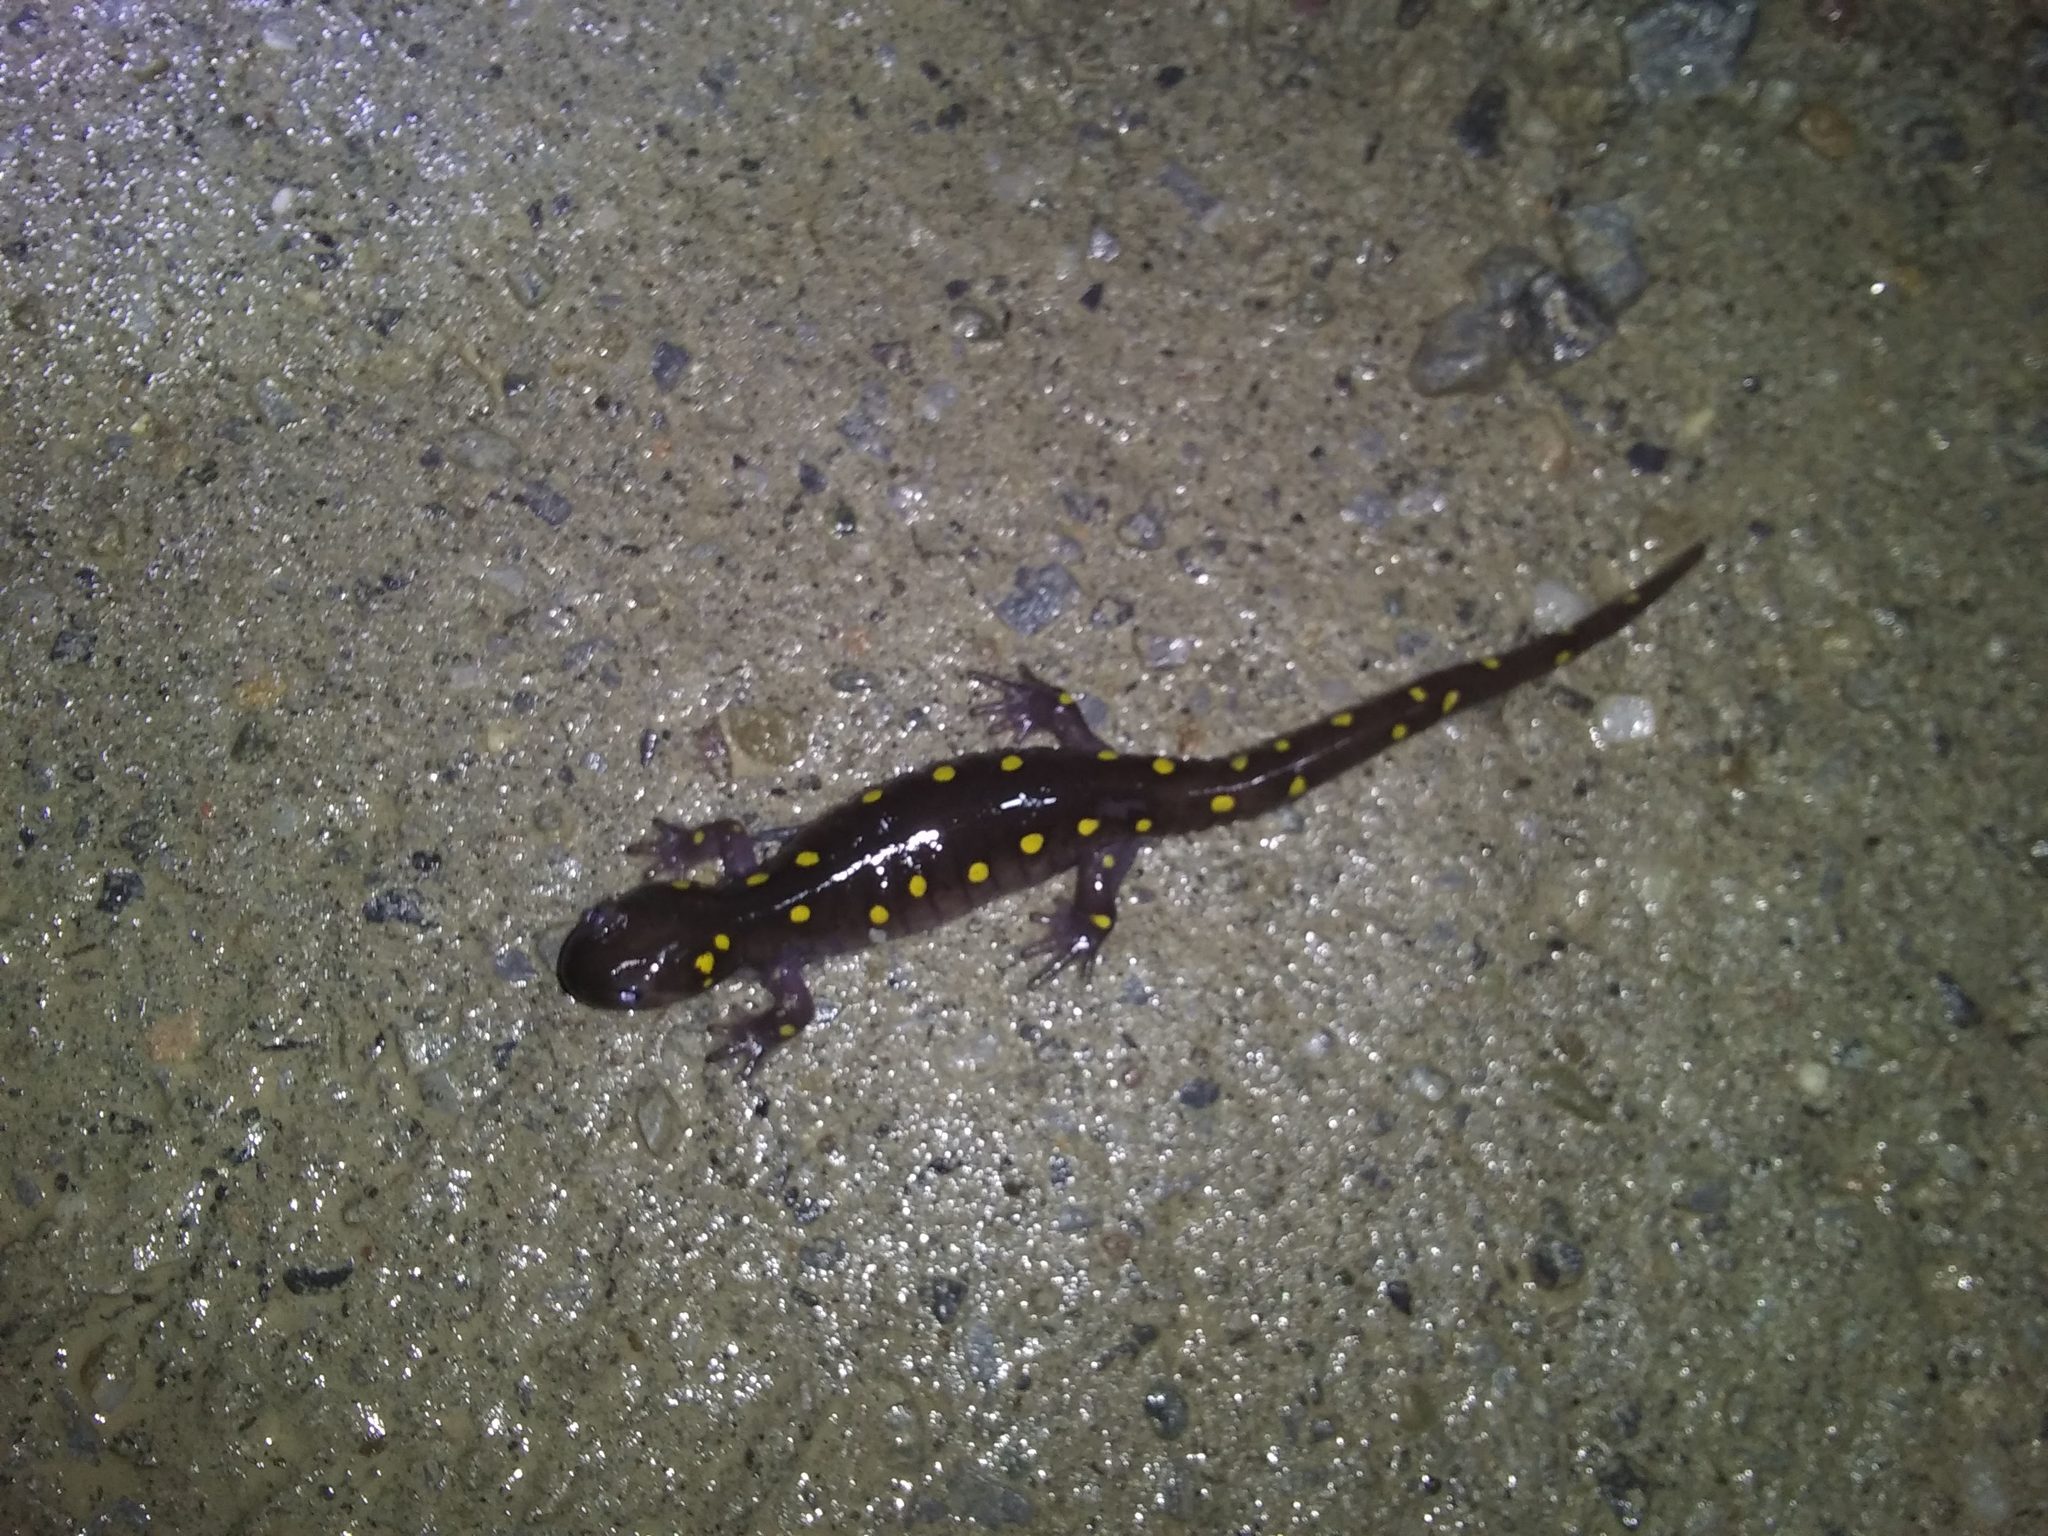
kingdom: Animalia
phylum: Chordata
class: Amphibia
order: Caudata
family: Ambystomatidae
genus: Ambystoma
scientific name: Ambystoma maculatum
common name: Spotted salamander
